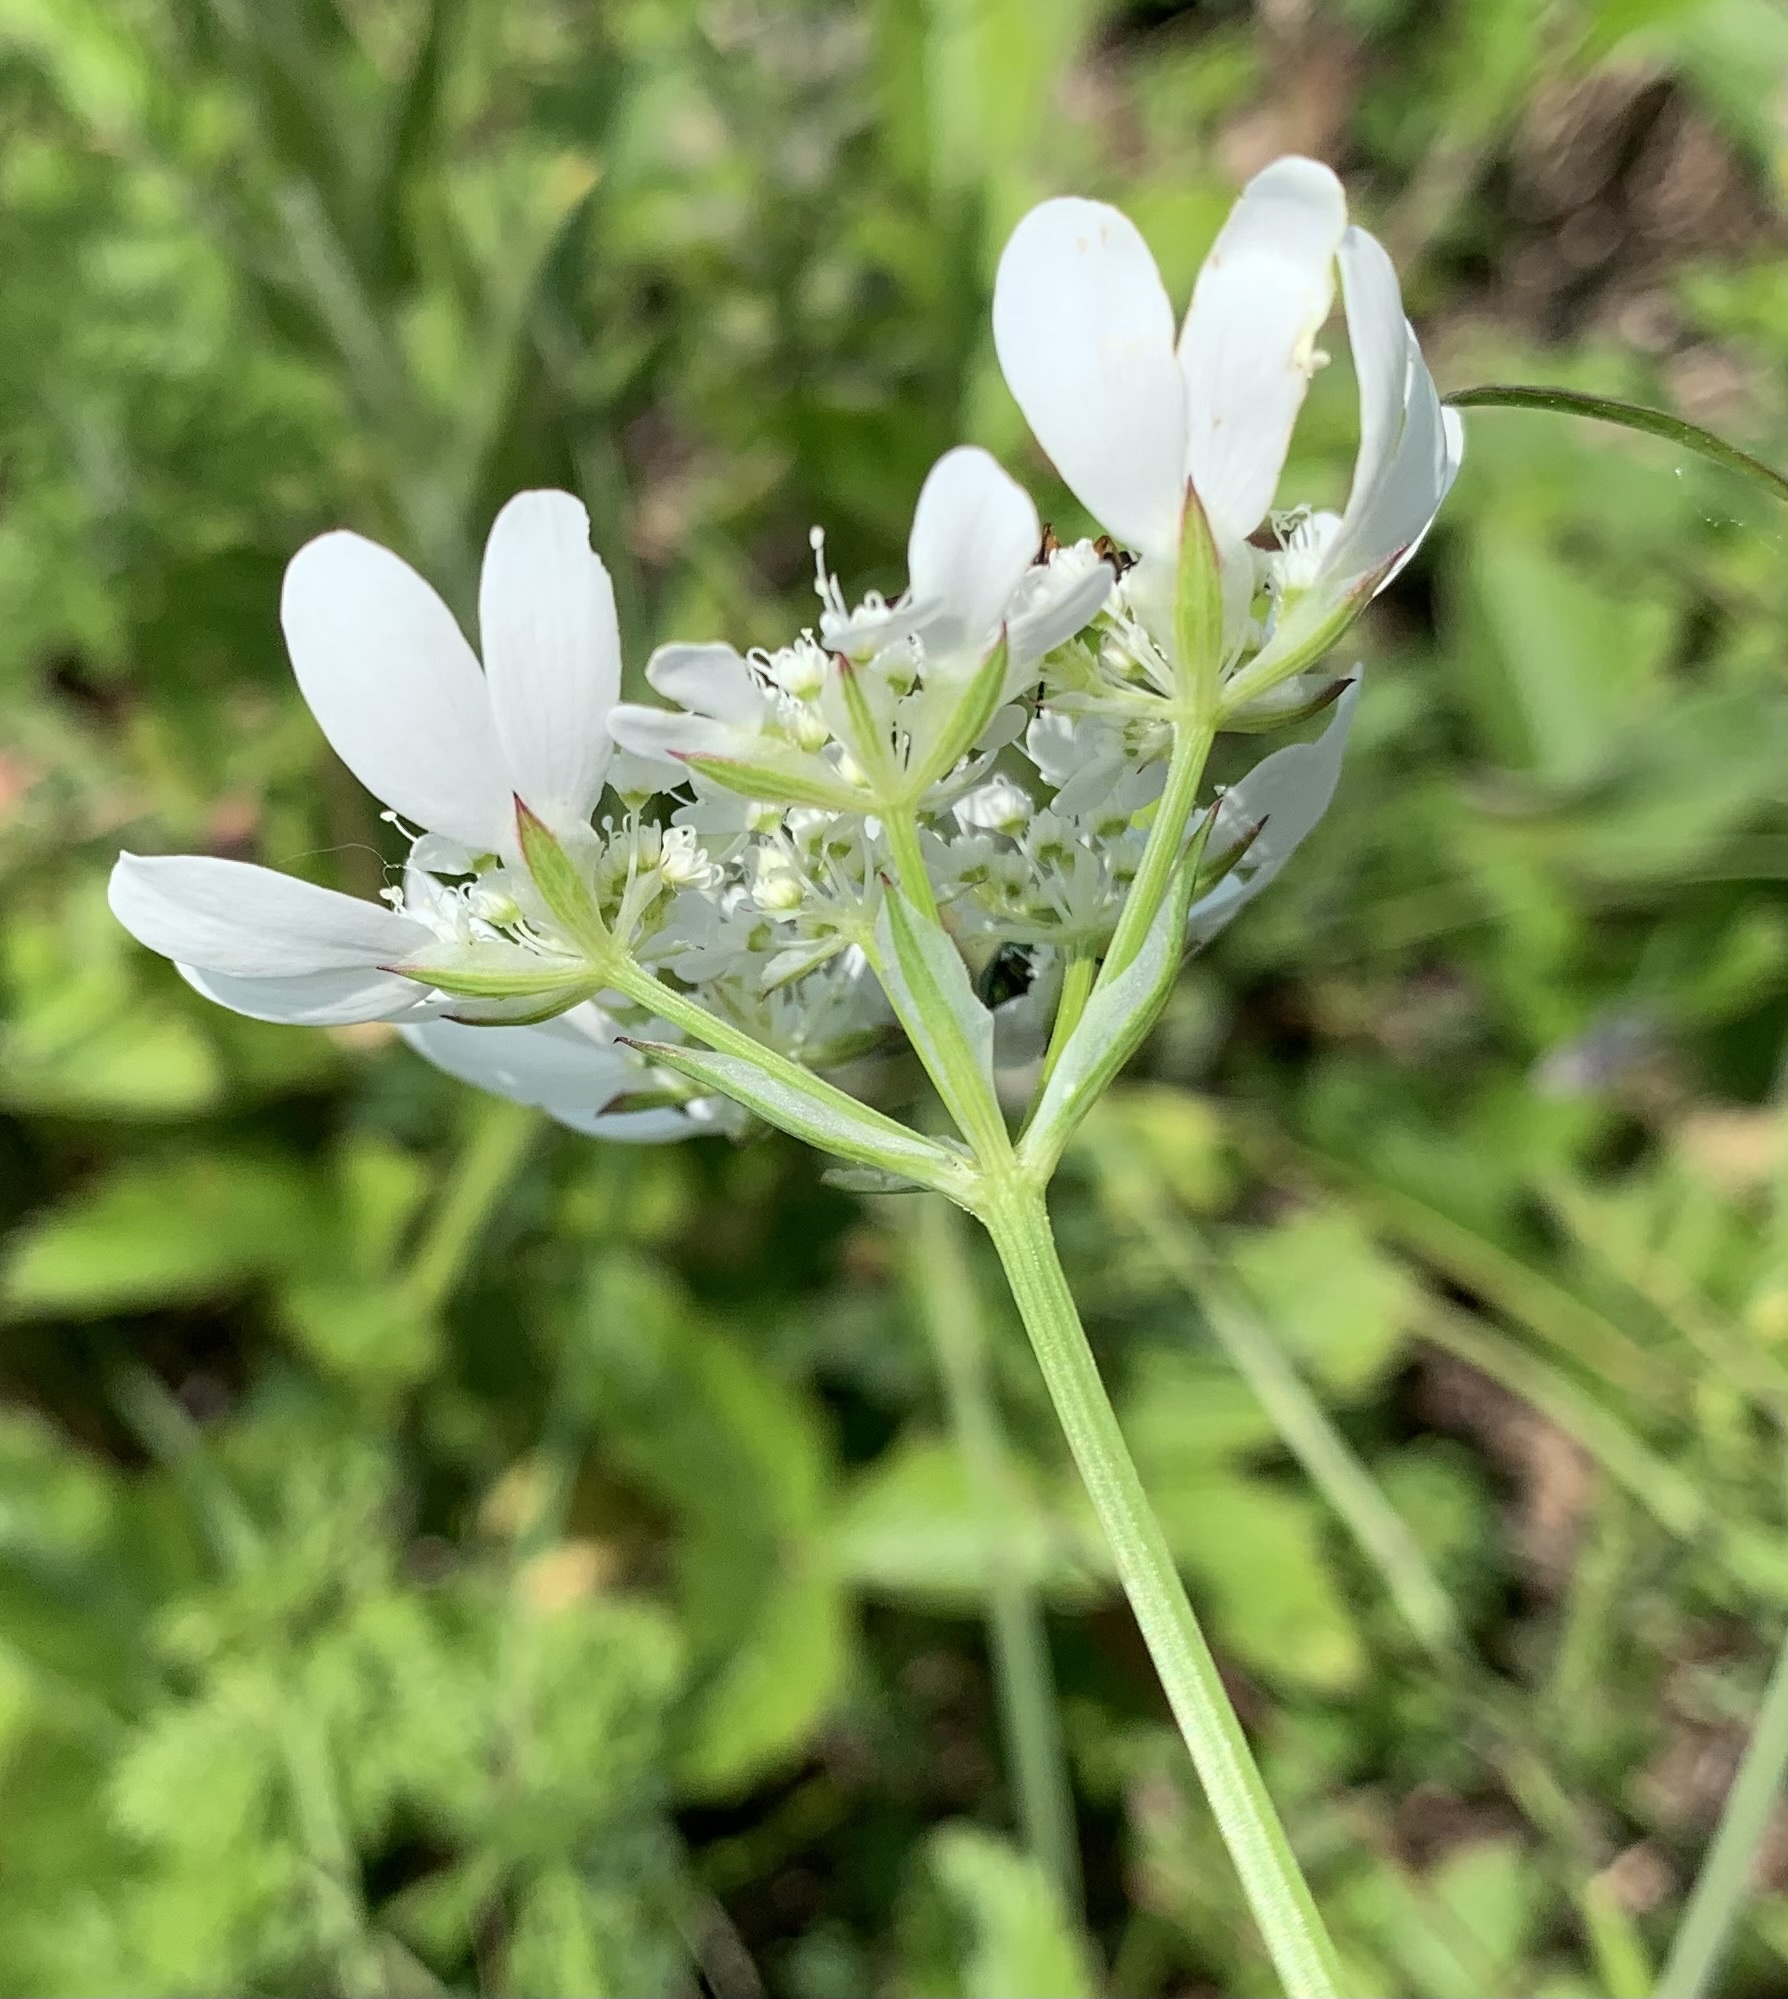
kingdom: Plantae
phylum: Tracheophyta
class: Magnoliopsida
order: Apiales
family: Apiaceae
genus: Orlaya
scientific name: Orlaya grandiflora
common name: White lace flower
